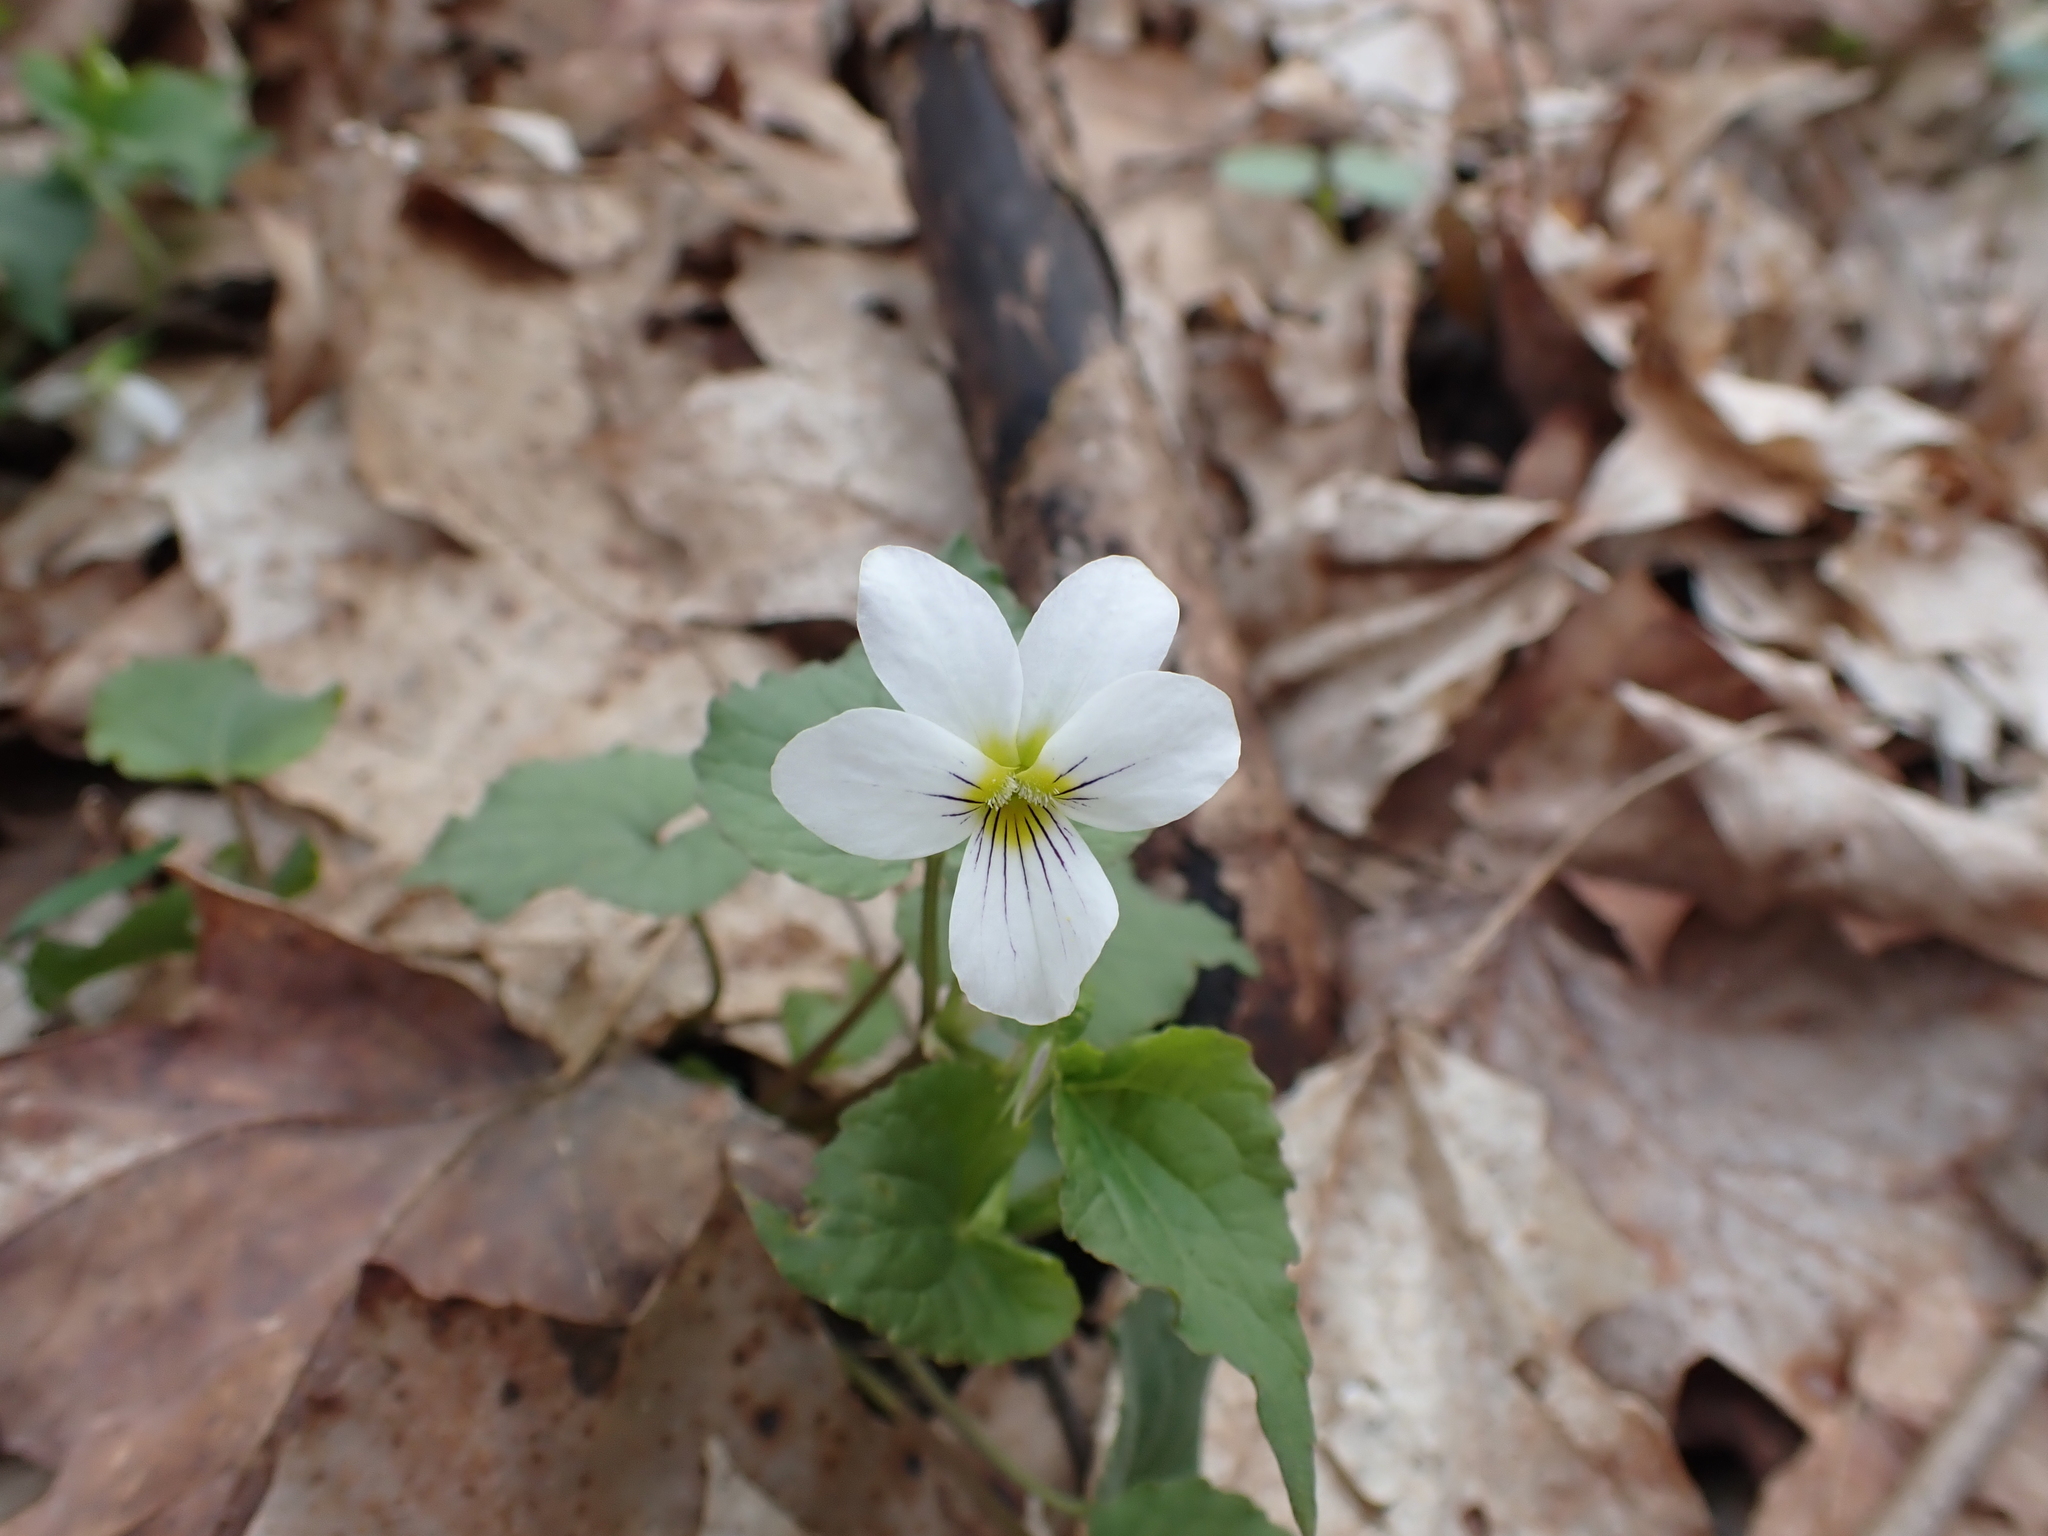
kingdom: Plantae
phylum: Tracheophyta
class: Magnoliopsida
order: Malpighiales
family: Violaceae
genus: Viola
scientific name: Viola canadensis
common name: Canada violet
